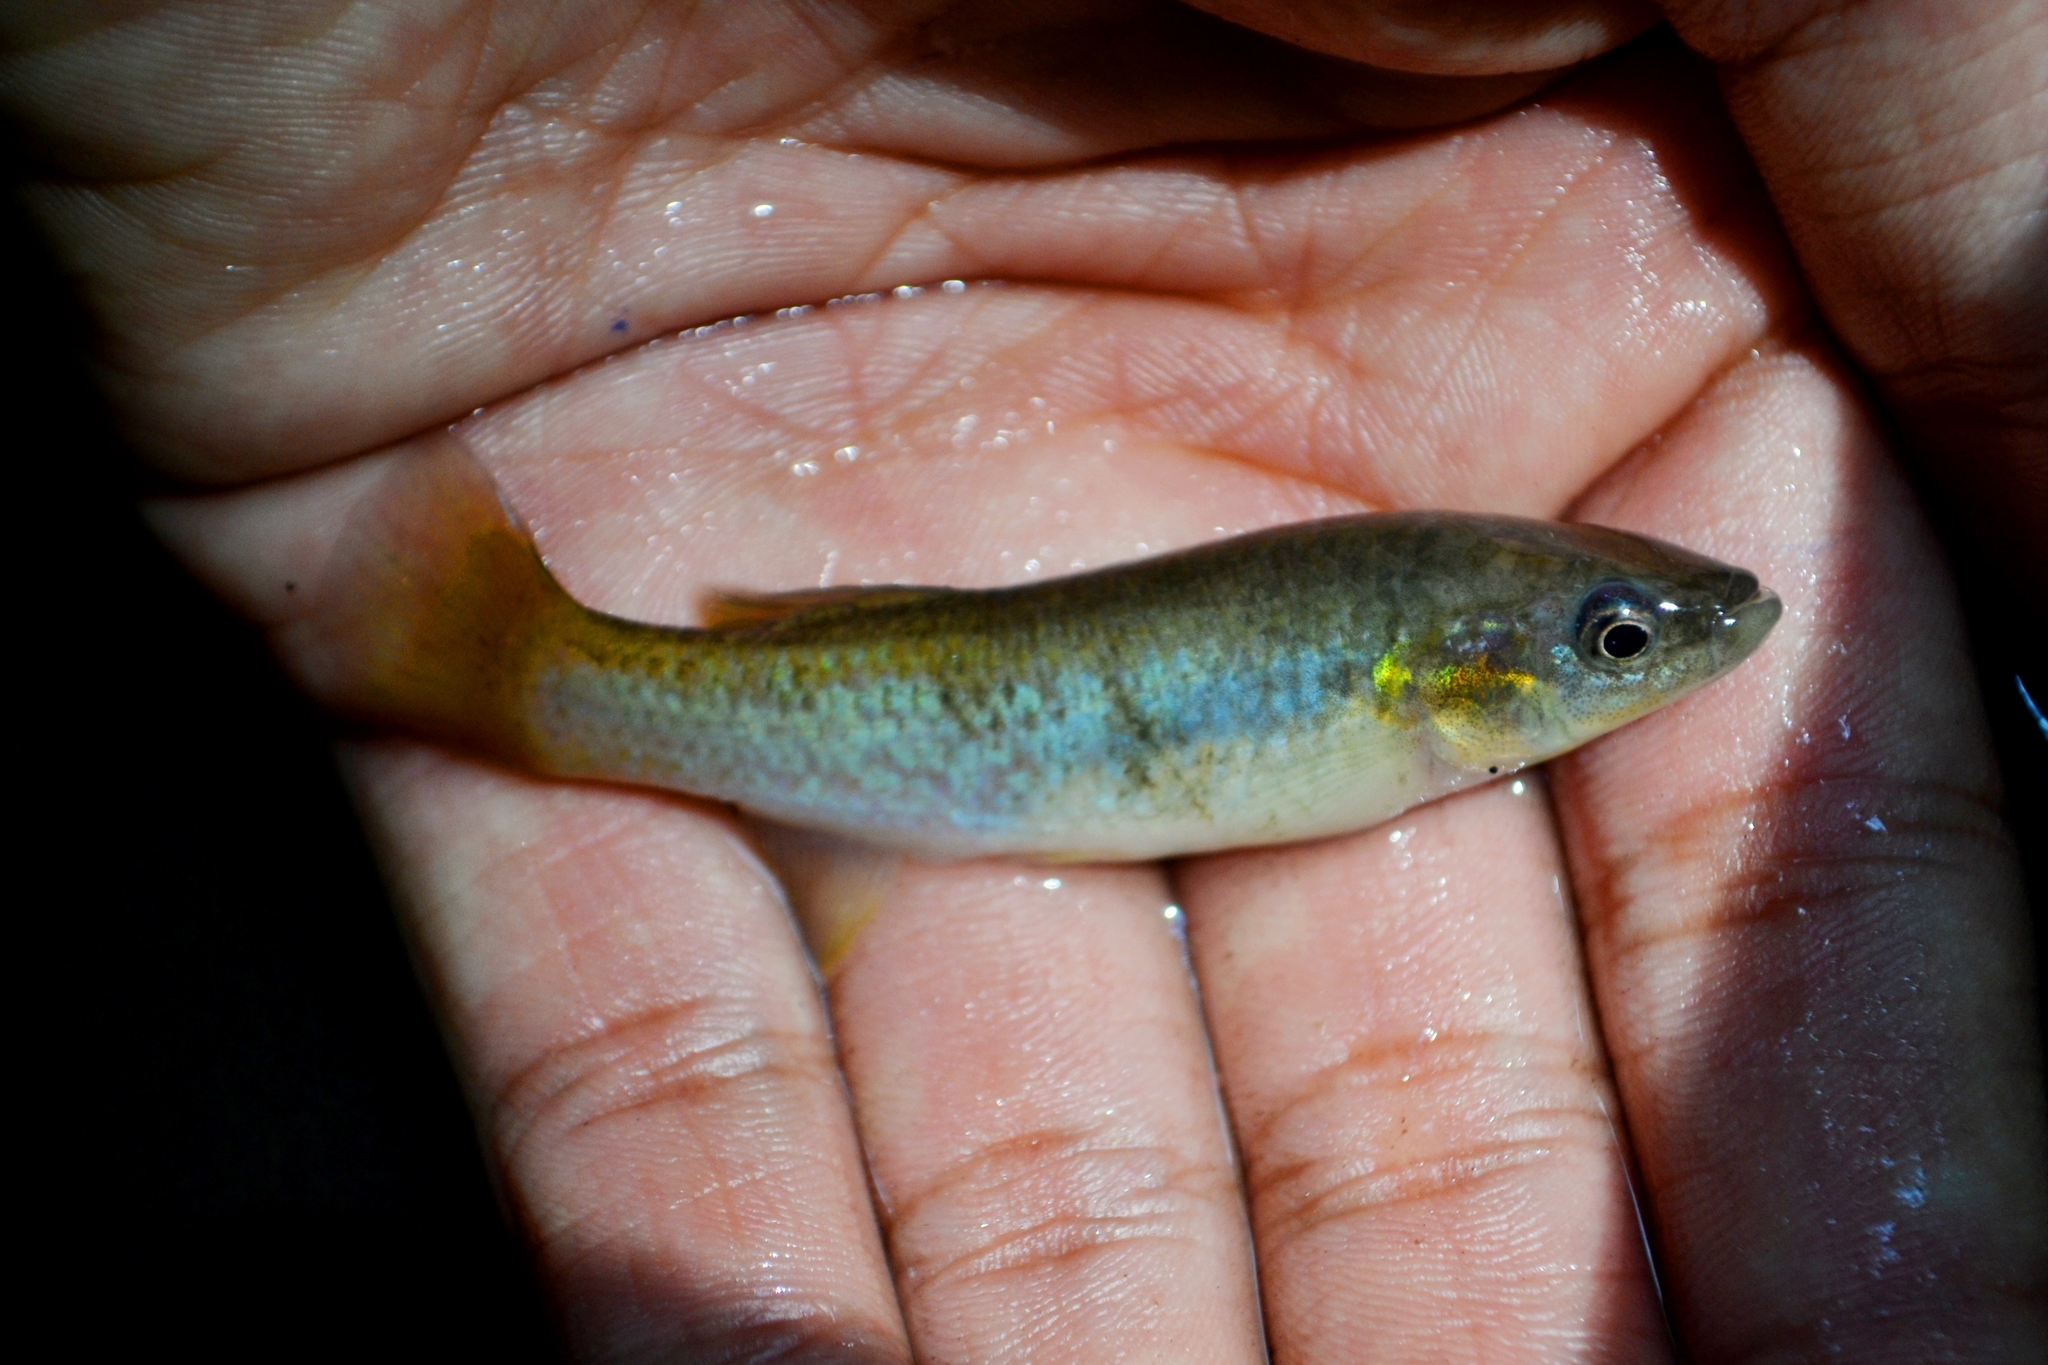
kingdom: Animalia
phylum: Chordata
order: Cyprinodontiformes
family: Profundulidae
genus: Profundulus
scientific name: Profundulus labialis
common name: Largelip killifish
